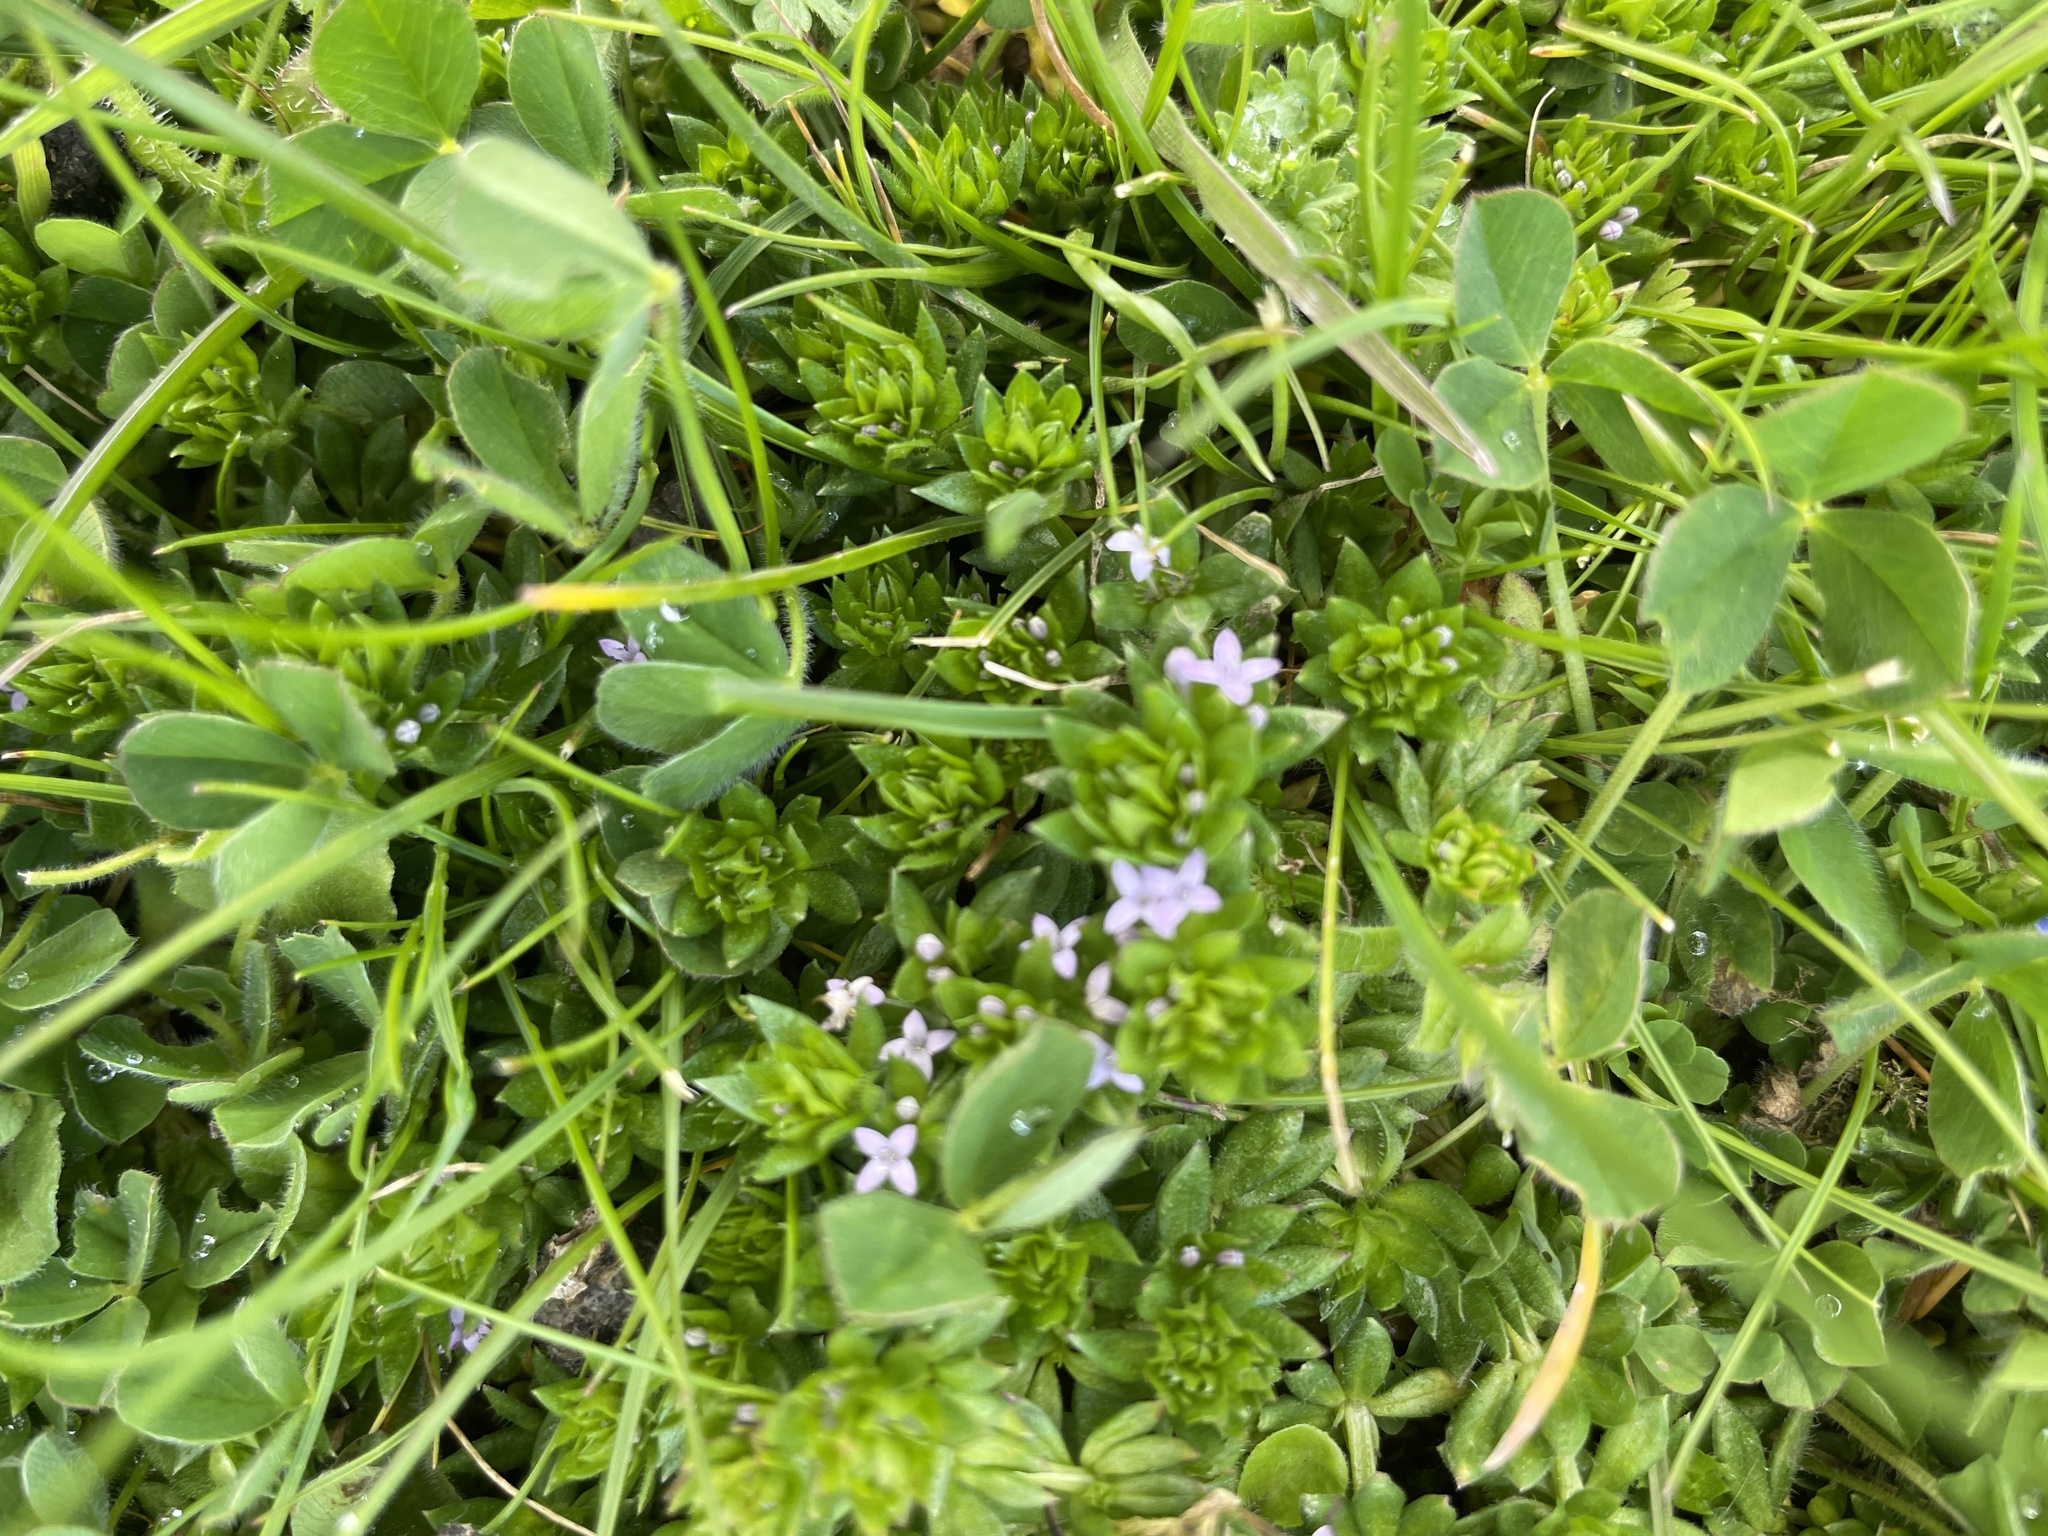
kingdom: Plantae
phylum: Tracheophyta
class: Magnoliopsida
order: Gentianales
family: Rubiaceae
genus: Sherardia
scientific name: Sherardia arvensis
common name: Field madder
